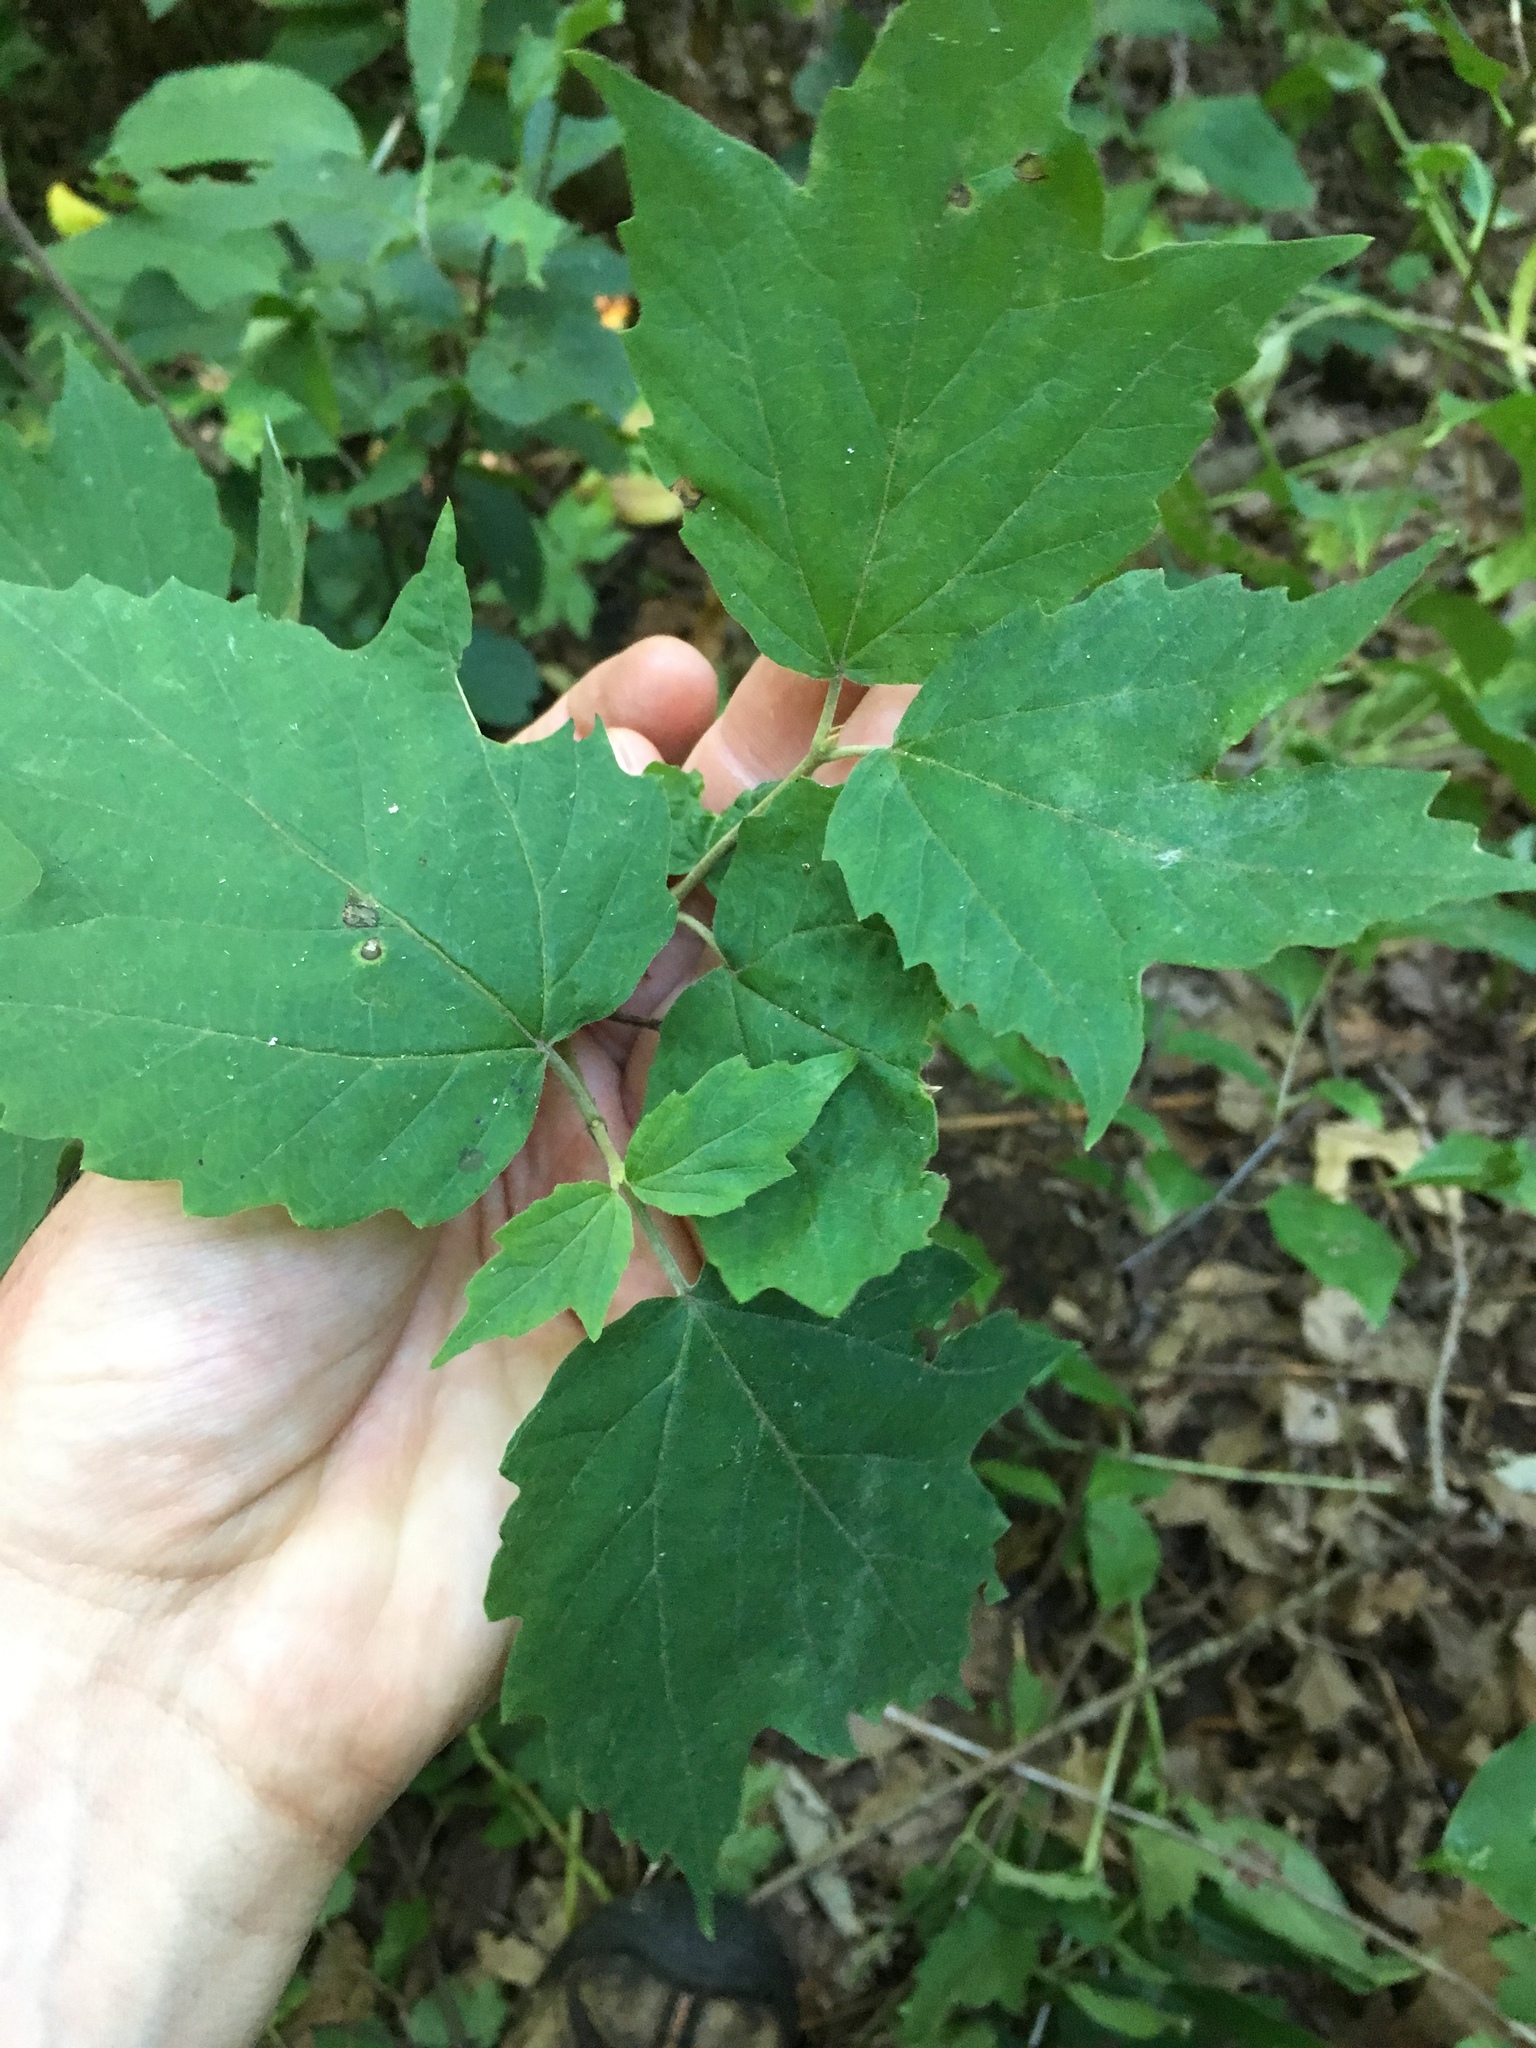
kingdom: Plantae
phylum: Tracheophyta
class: Magnoliopsida
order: Dipsacales
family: Viburnaceae
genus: Viburnum
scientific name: Viburnum acerifolium
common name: Dockmackie
